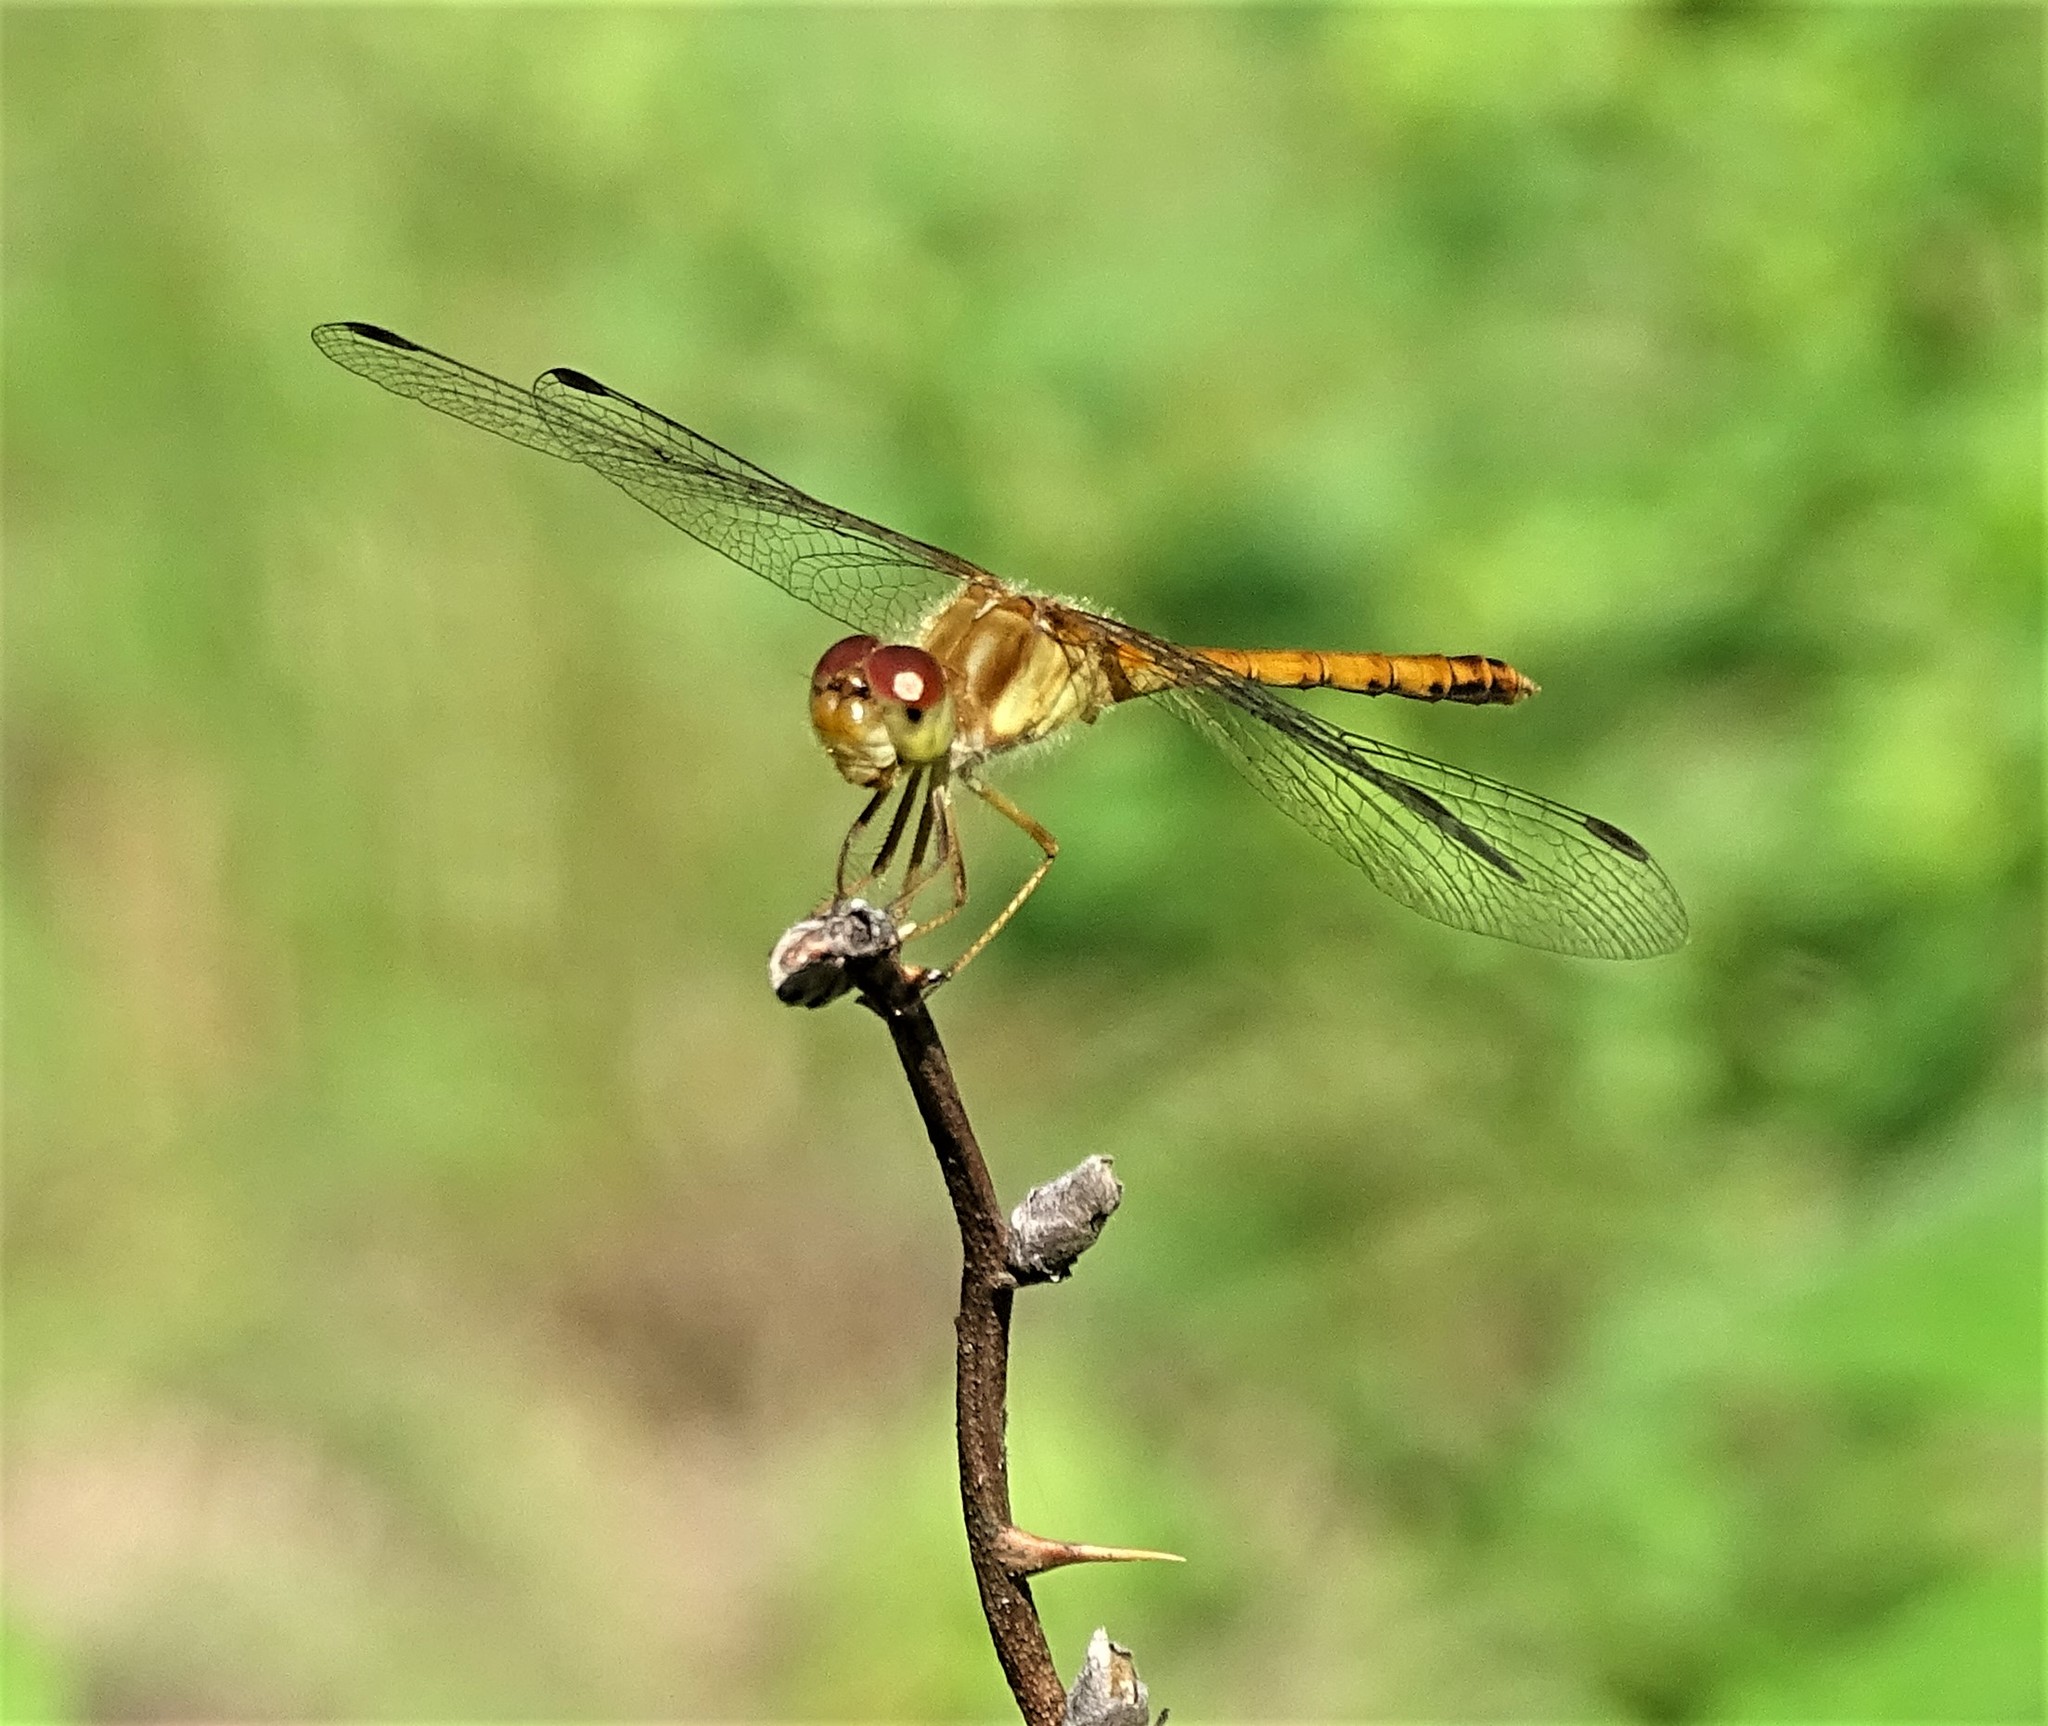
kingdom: Animalia
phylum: Arthropoda
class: Insecta
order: Odonata
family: Libellulidae
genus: Sympetrum
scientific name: Sympetrum vicinum
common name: Autumn meadowhawk
